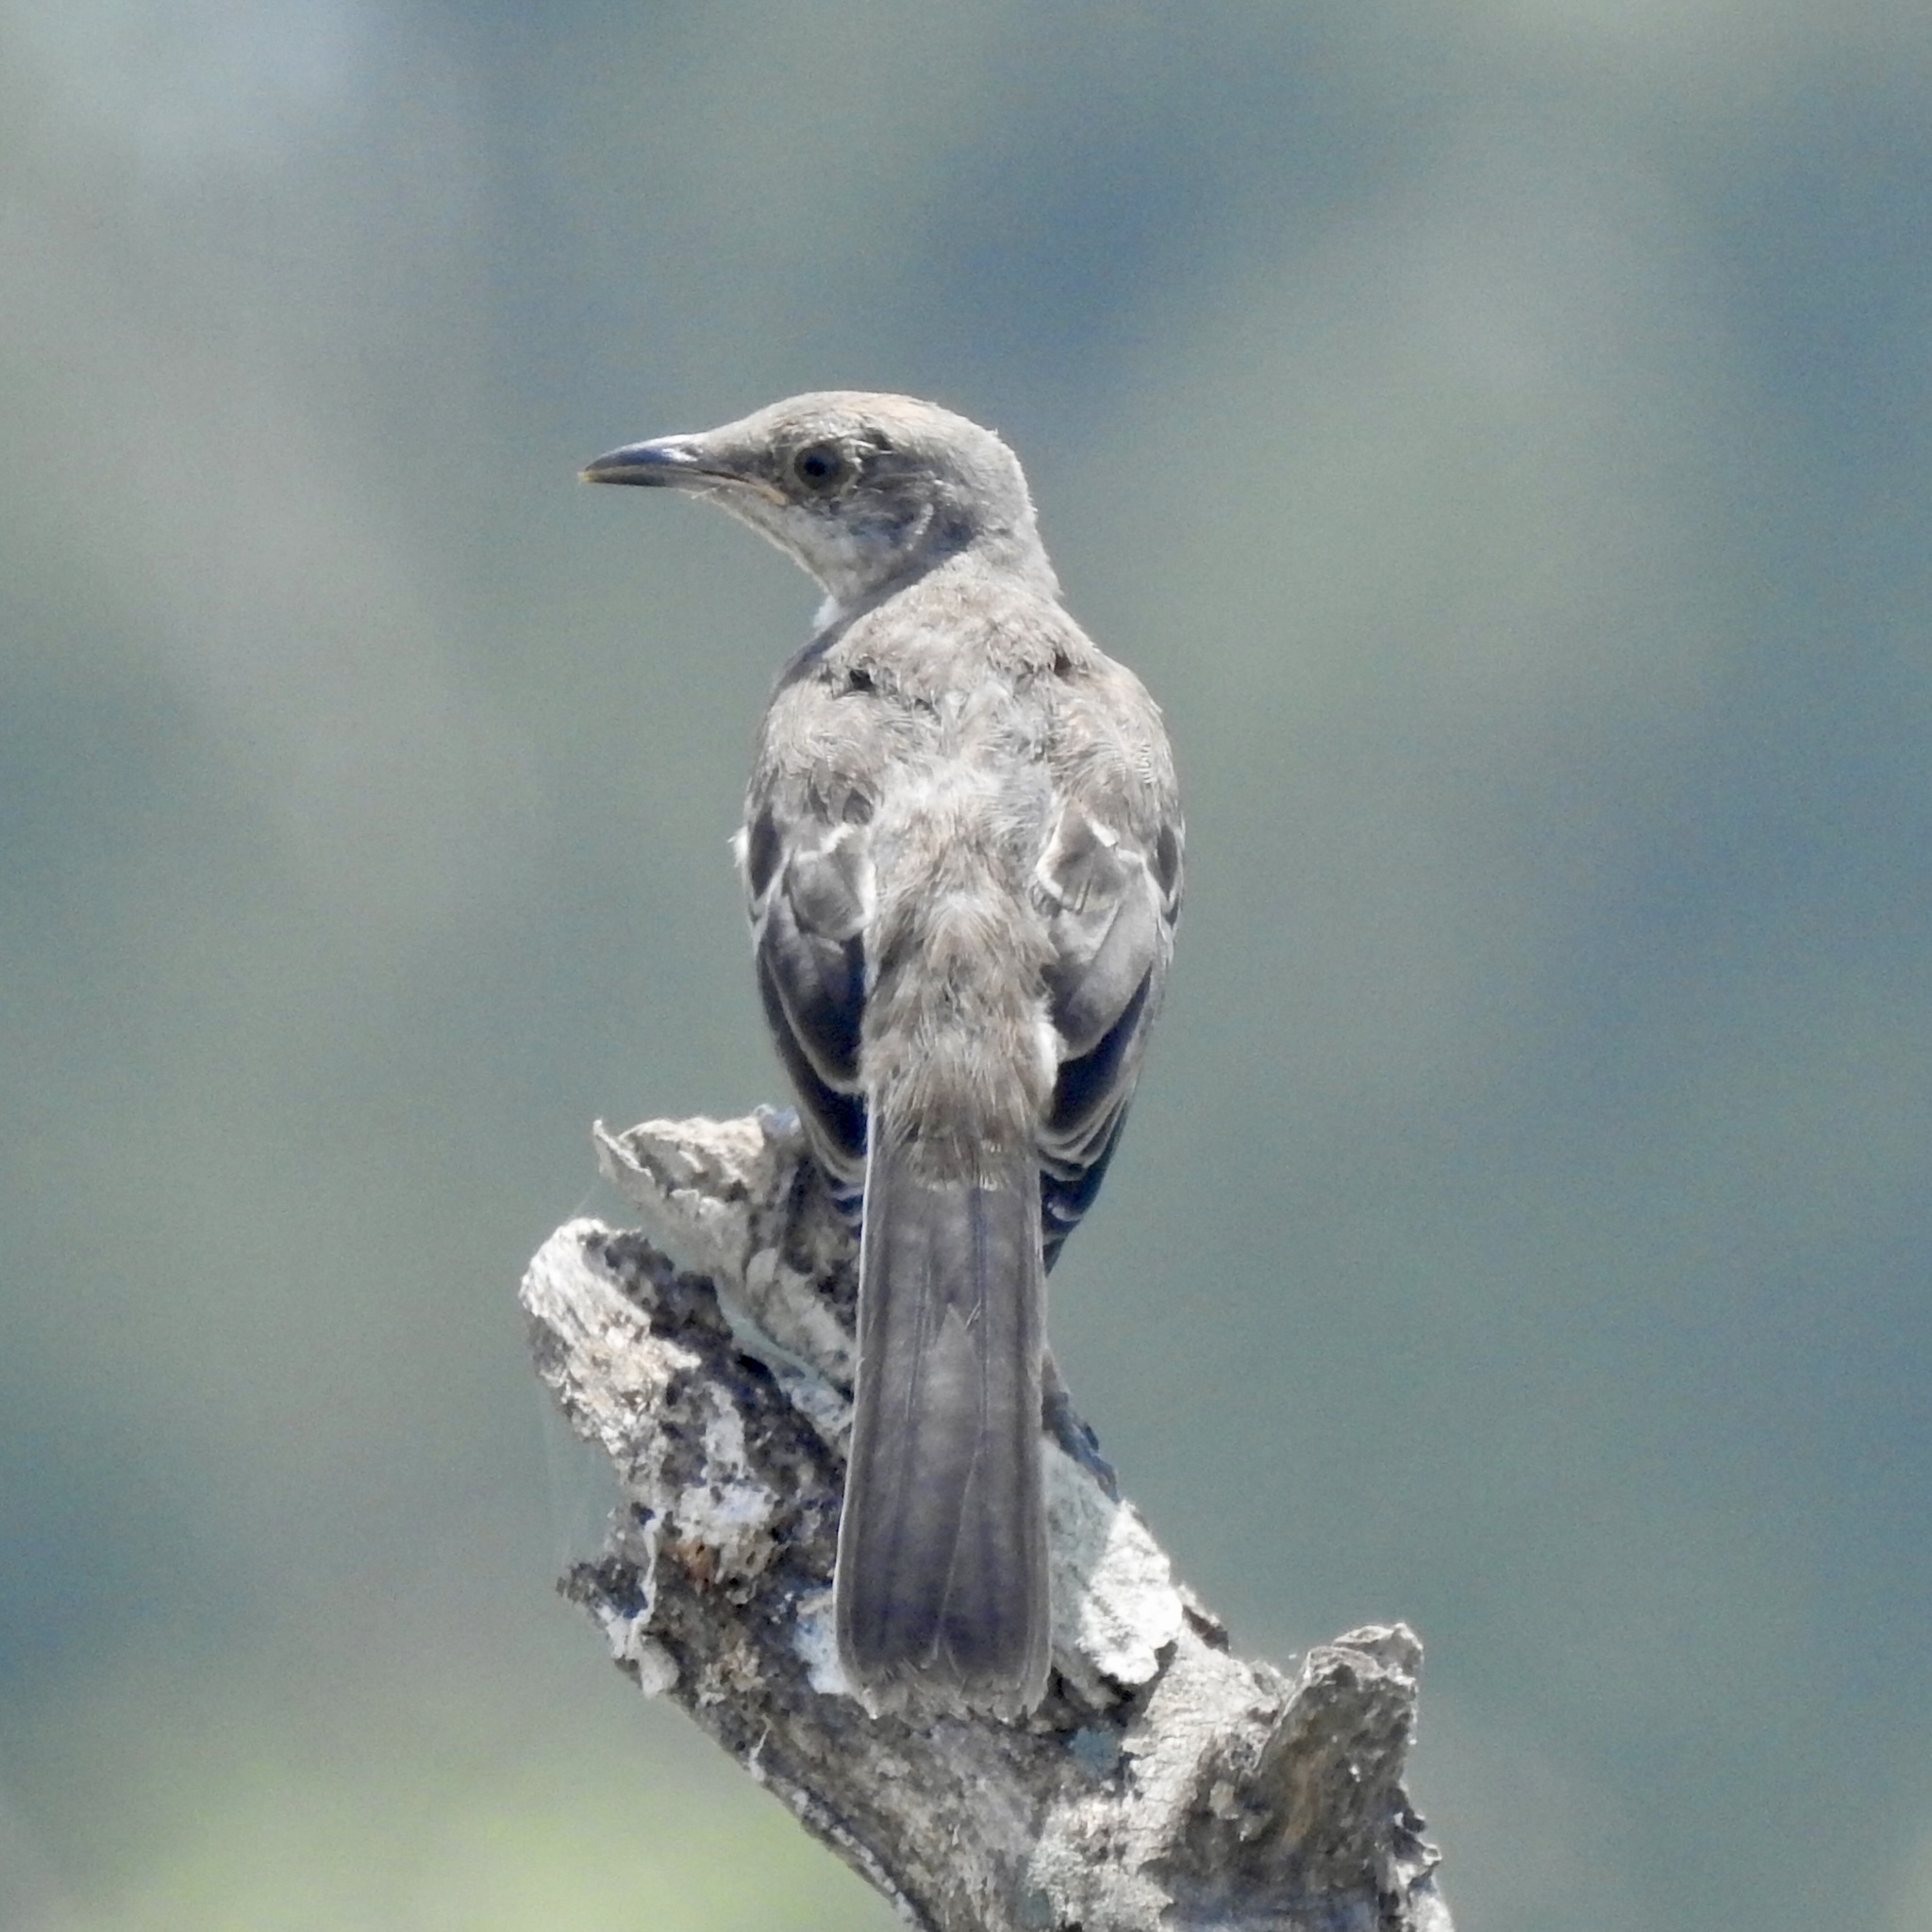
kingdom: Animalia
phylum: Chordata
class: Aves
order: Passeriformes
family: Mimidae
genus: Mimus
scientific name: Mimus polyglottos
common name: Northern mockingbird
